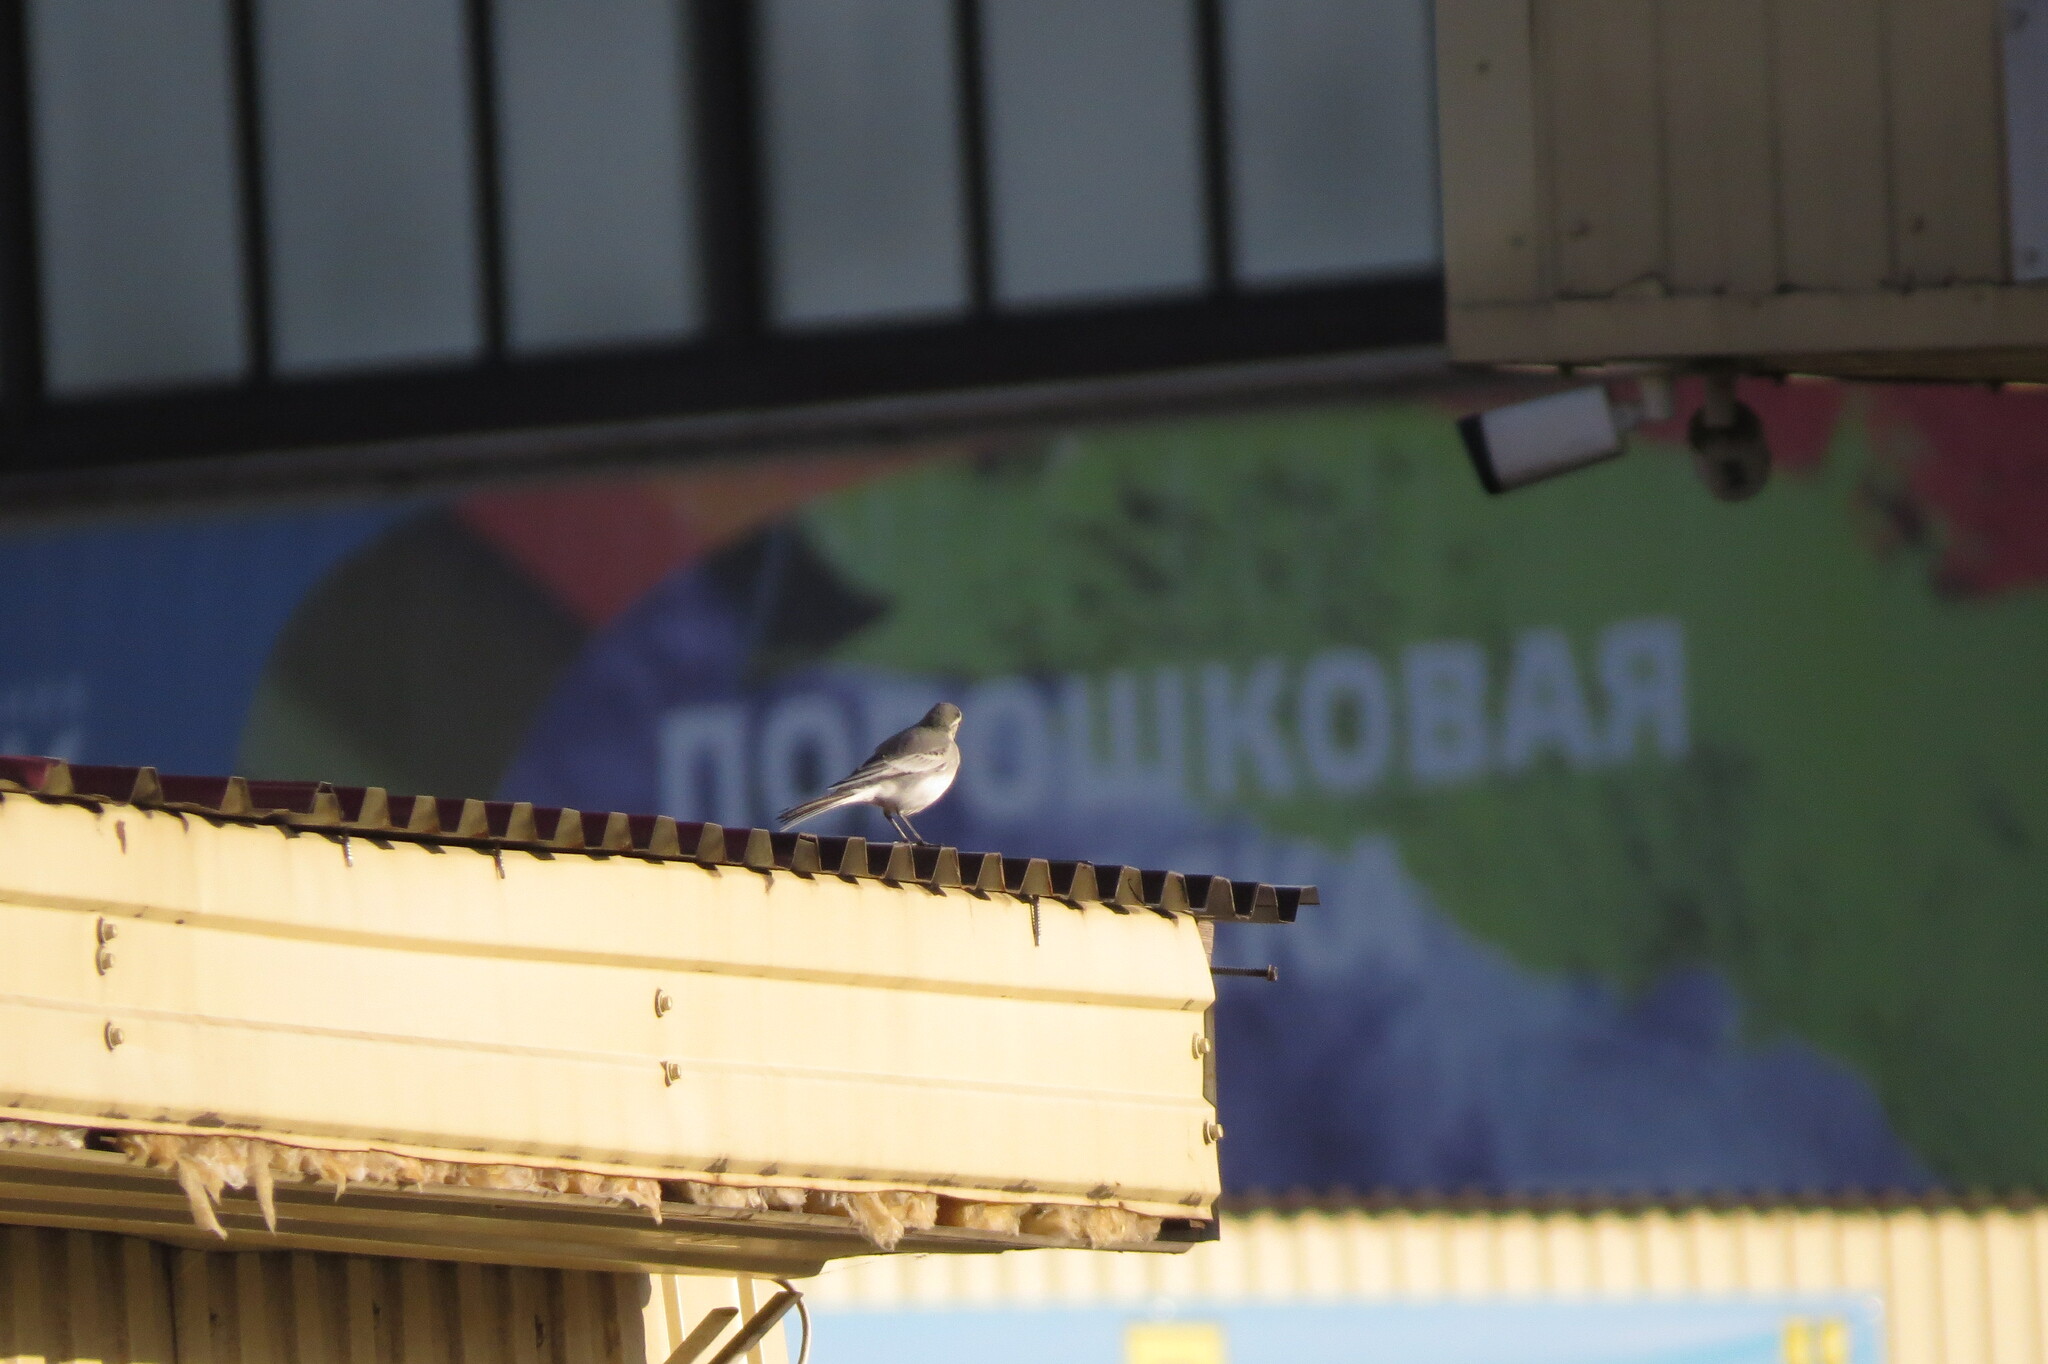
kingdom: Animalia
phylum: Chordata
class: Aves
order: Passeriformes
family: Motacillidae
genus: Motacilla
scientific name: Motacilla alba
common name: White wagtail
